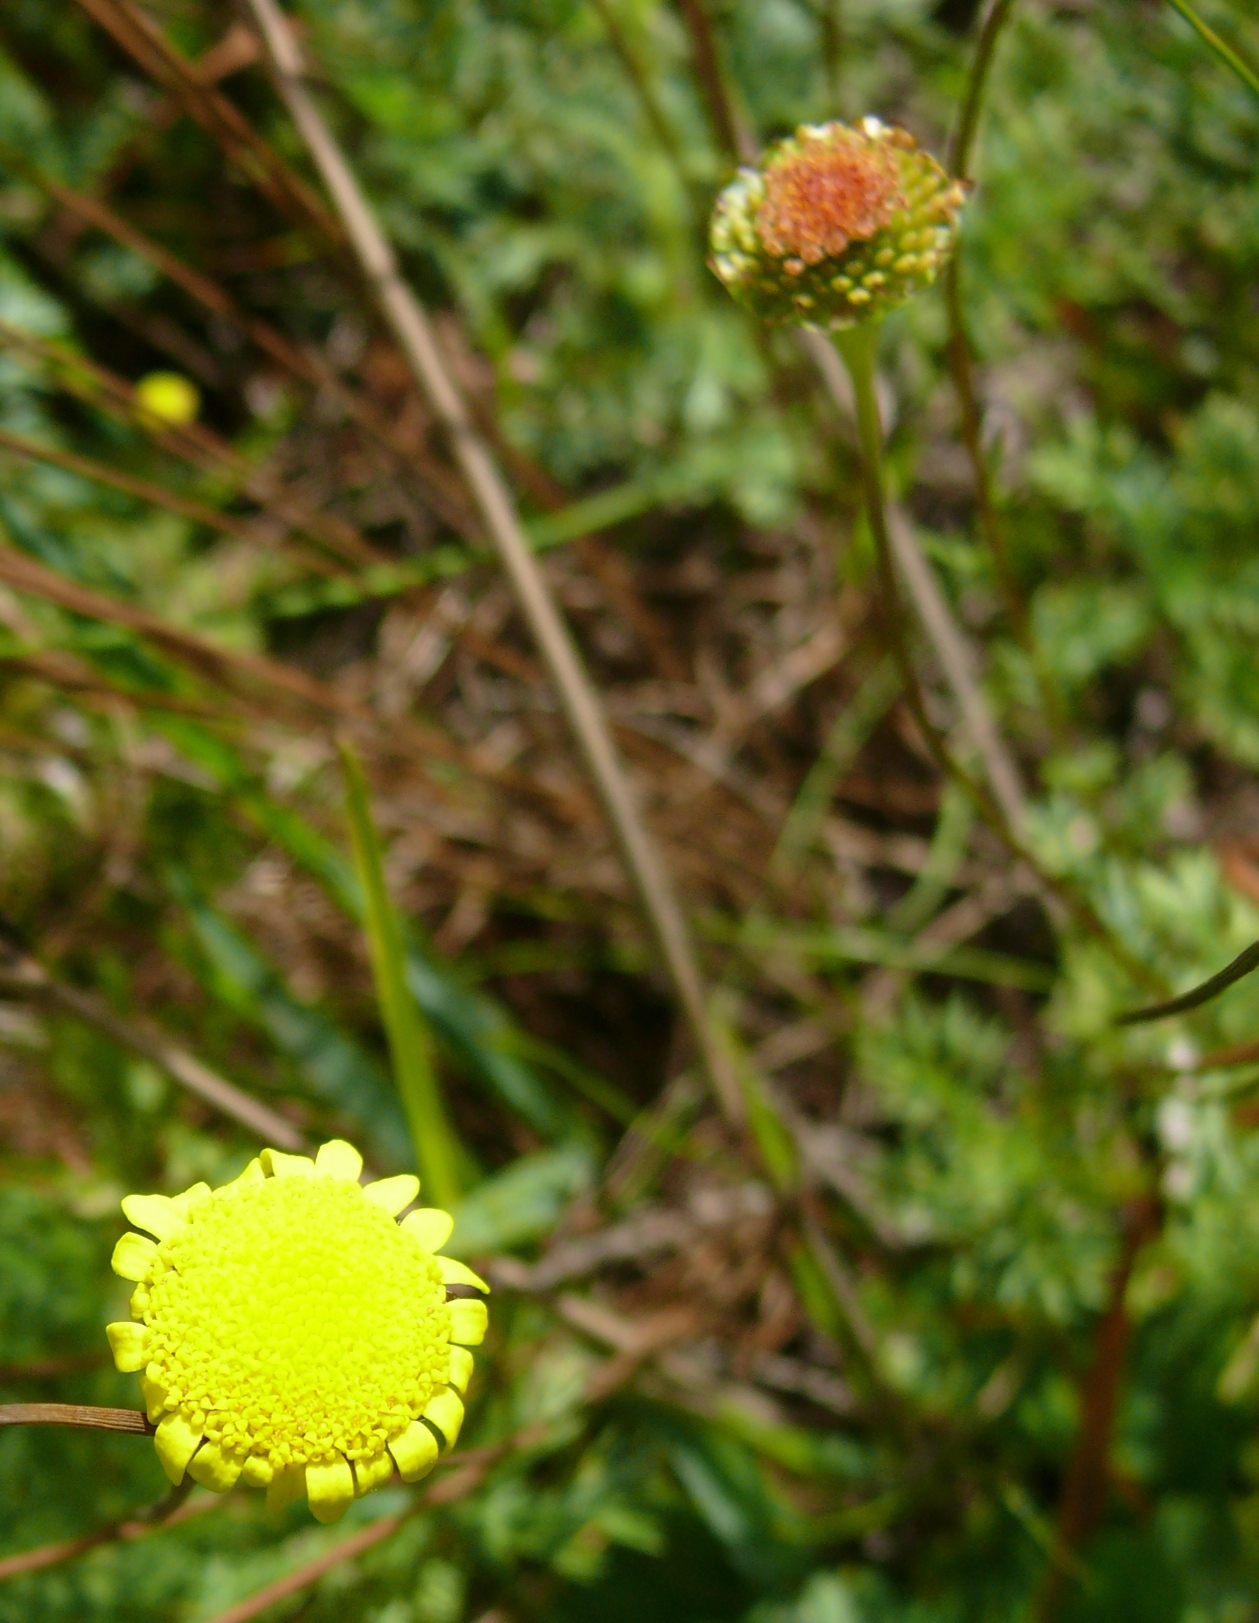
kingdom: Plantae
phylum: Tracheophyta
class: Magnoliopsida
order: Asterales
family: Asteraceae
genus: Cotula
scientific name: Cotula pruinosa
